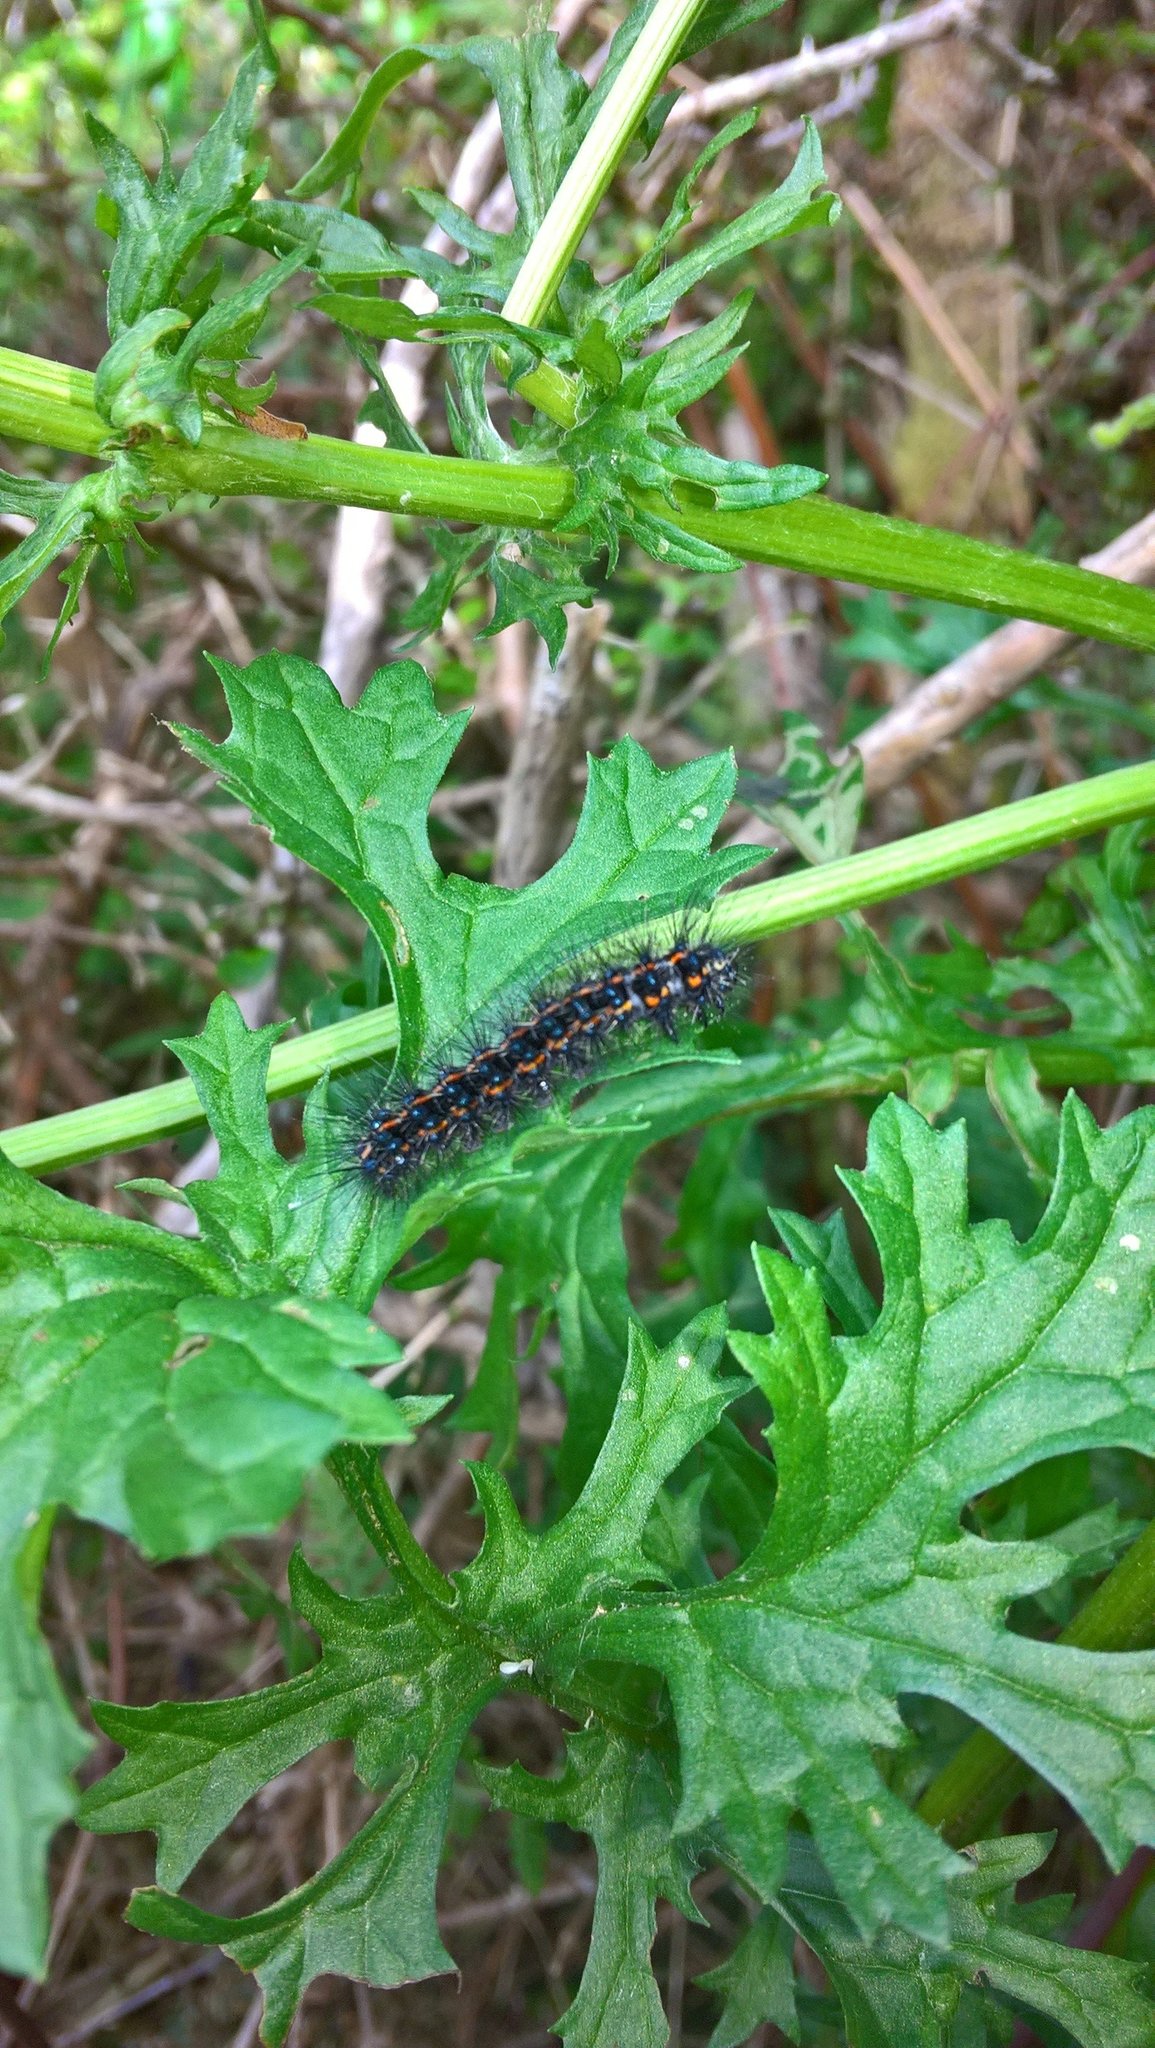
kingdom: Animalia
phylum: Arthropoda
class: Insecta
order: Lepidoptera
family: Erebidae
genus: Nyctemera
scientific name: Nyctemera annulatum
